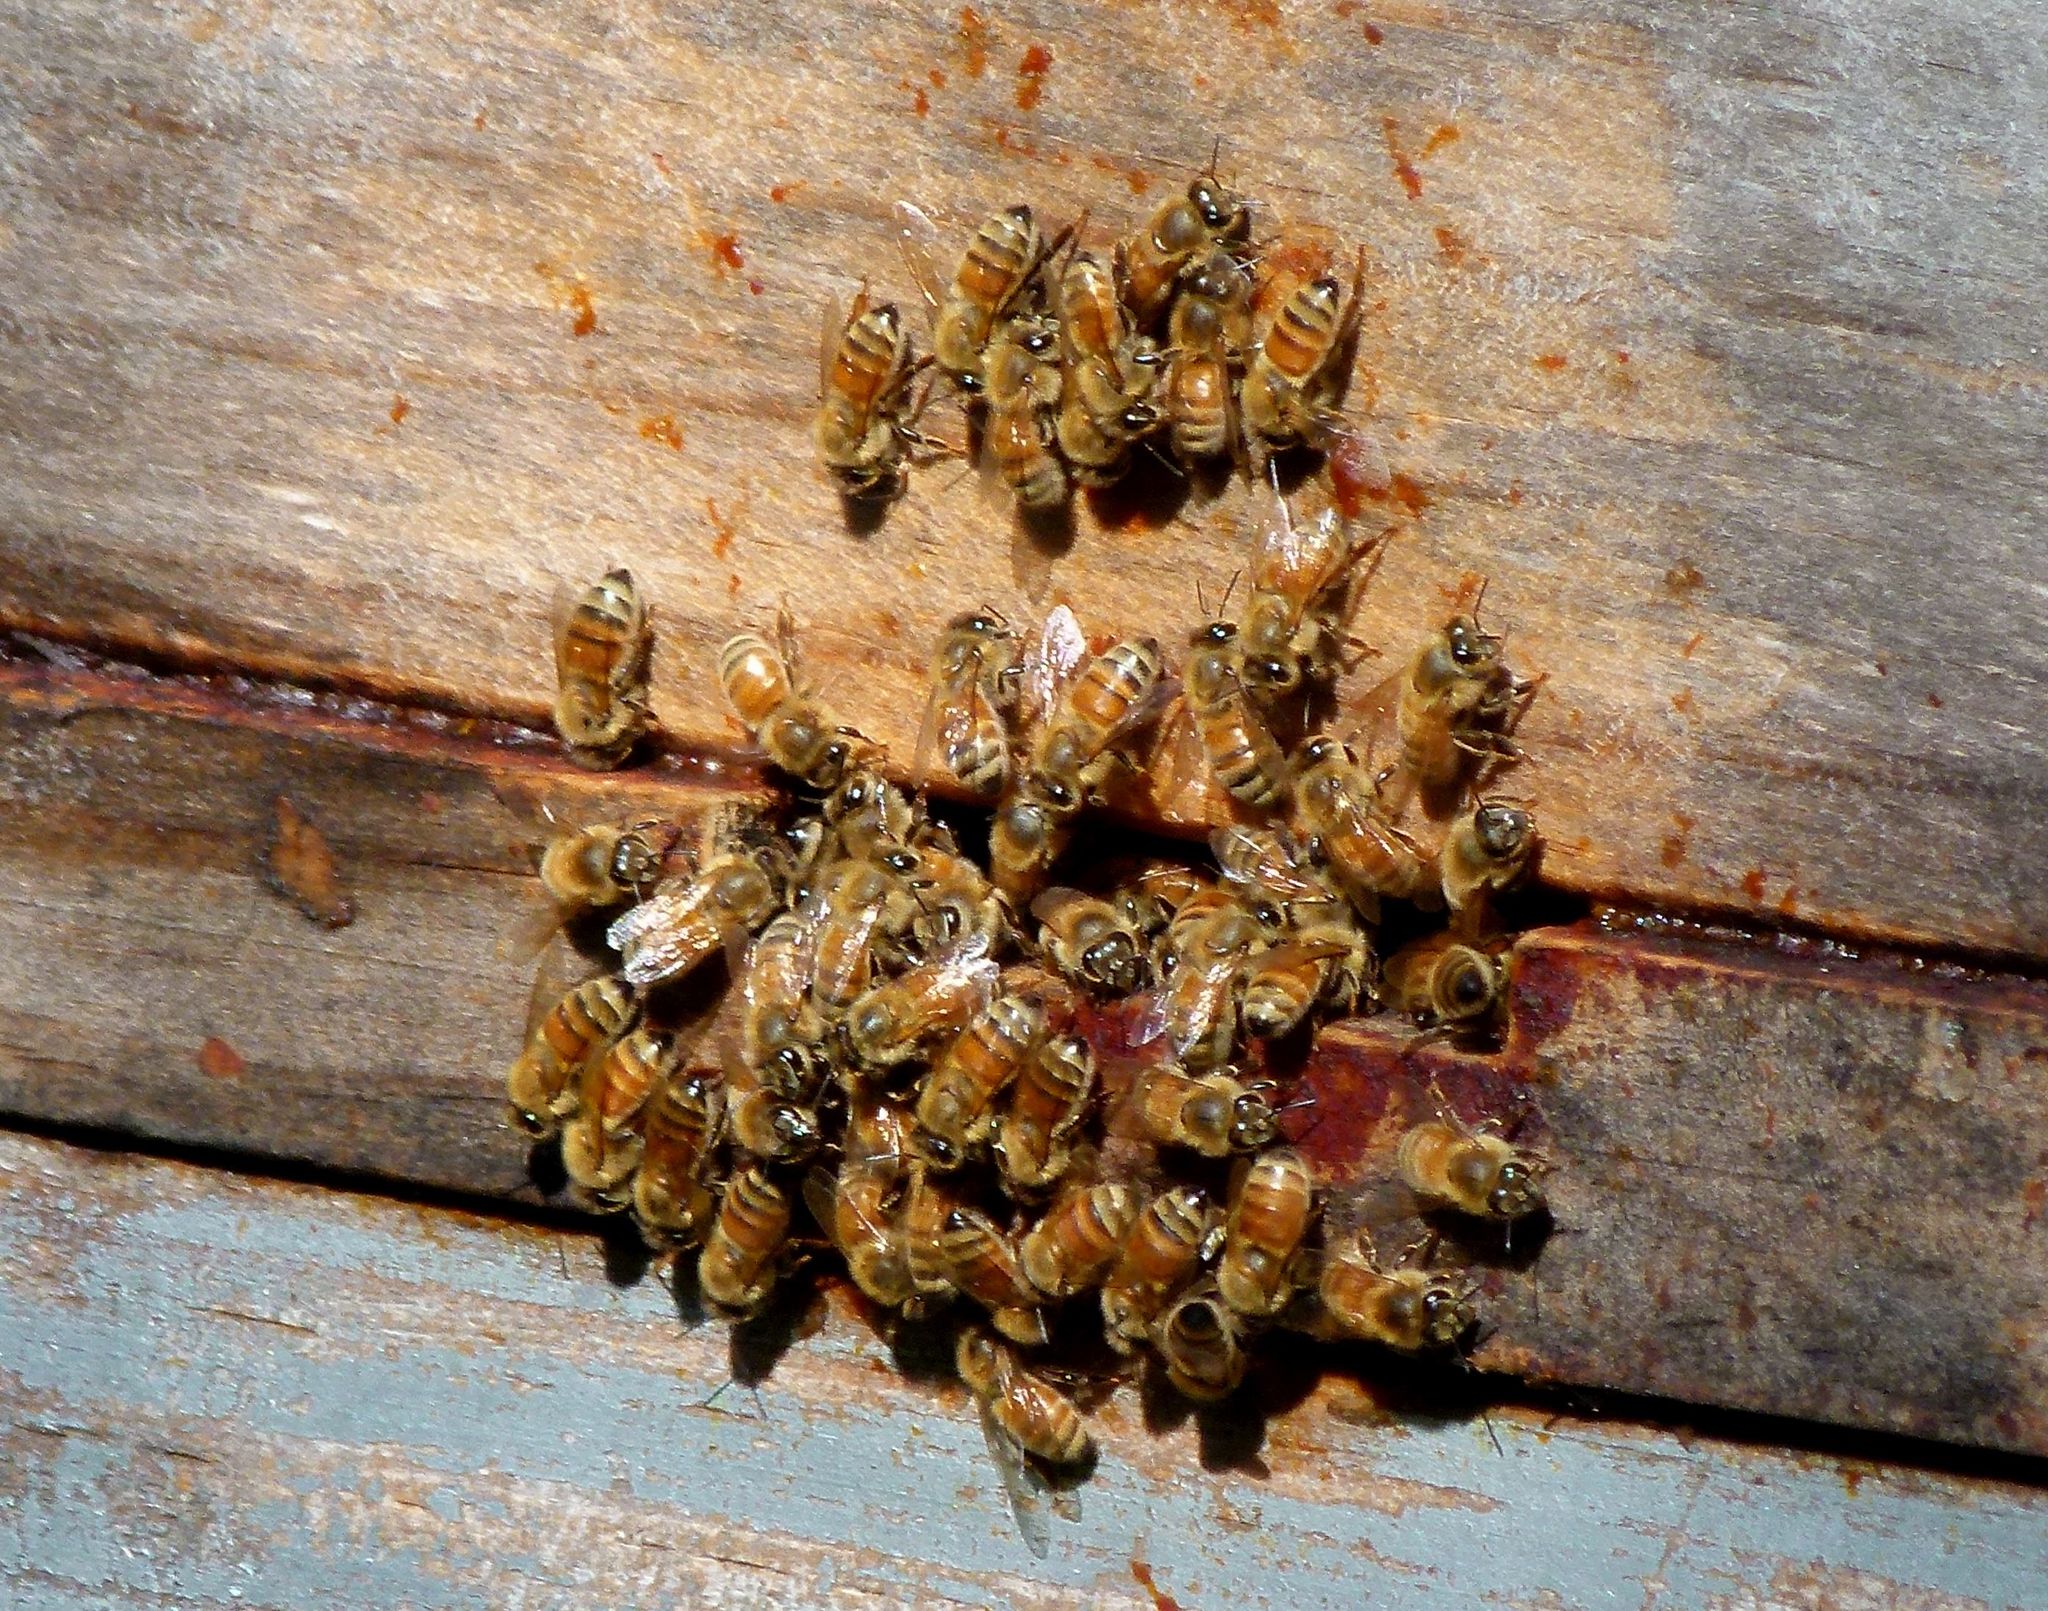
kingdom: Animalia
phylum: Arthropoda
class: Insecta
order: Hymenoptera
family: Apidae
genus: Apis
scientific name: Apis mellifera
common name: Honey bee
